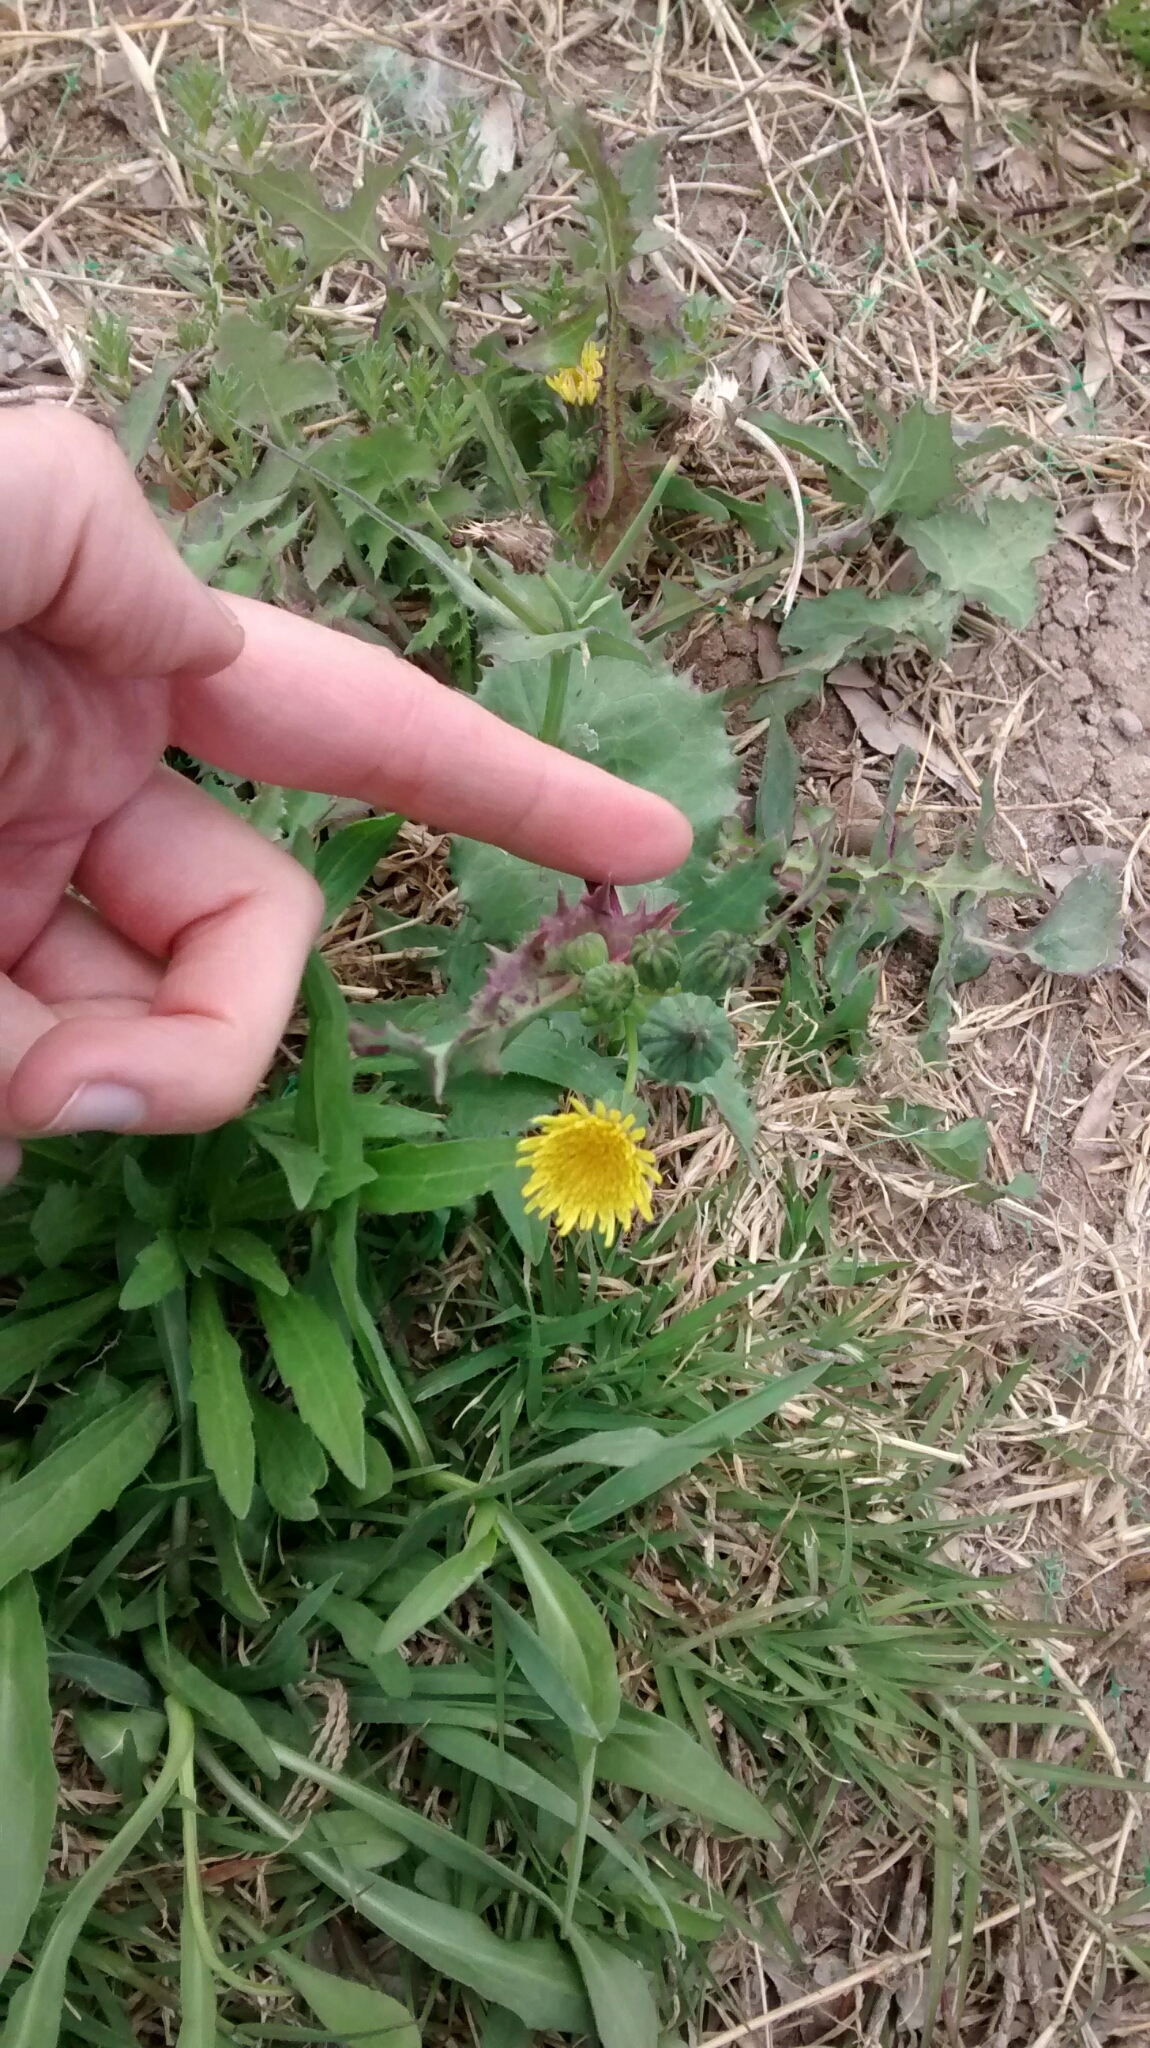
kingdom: Plantae
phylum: Tracheophyta
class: Magnoliopsida
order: Asterales
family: Asteraceae
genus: Sonchus
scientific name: Sonchus asper
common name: Prickly sow-thistle
